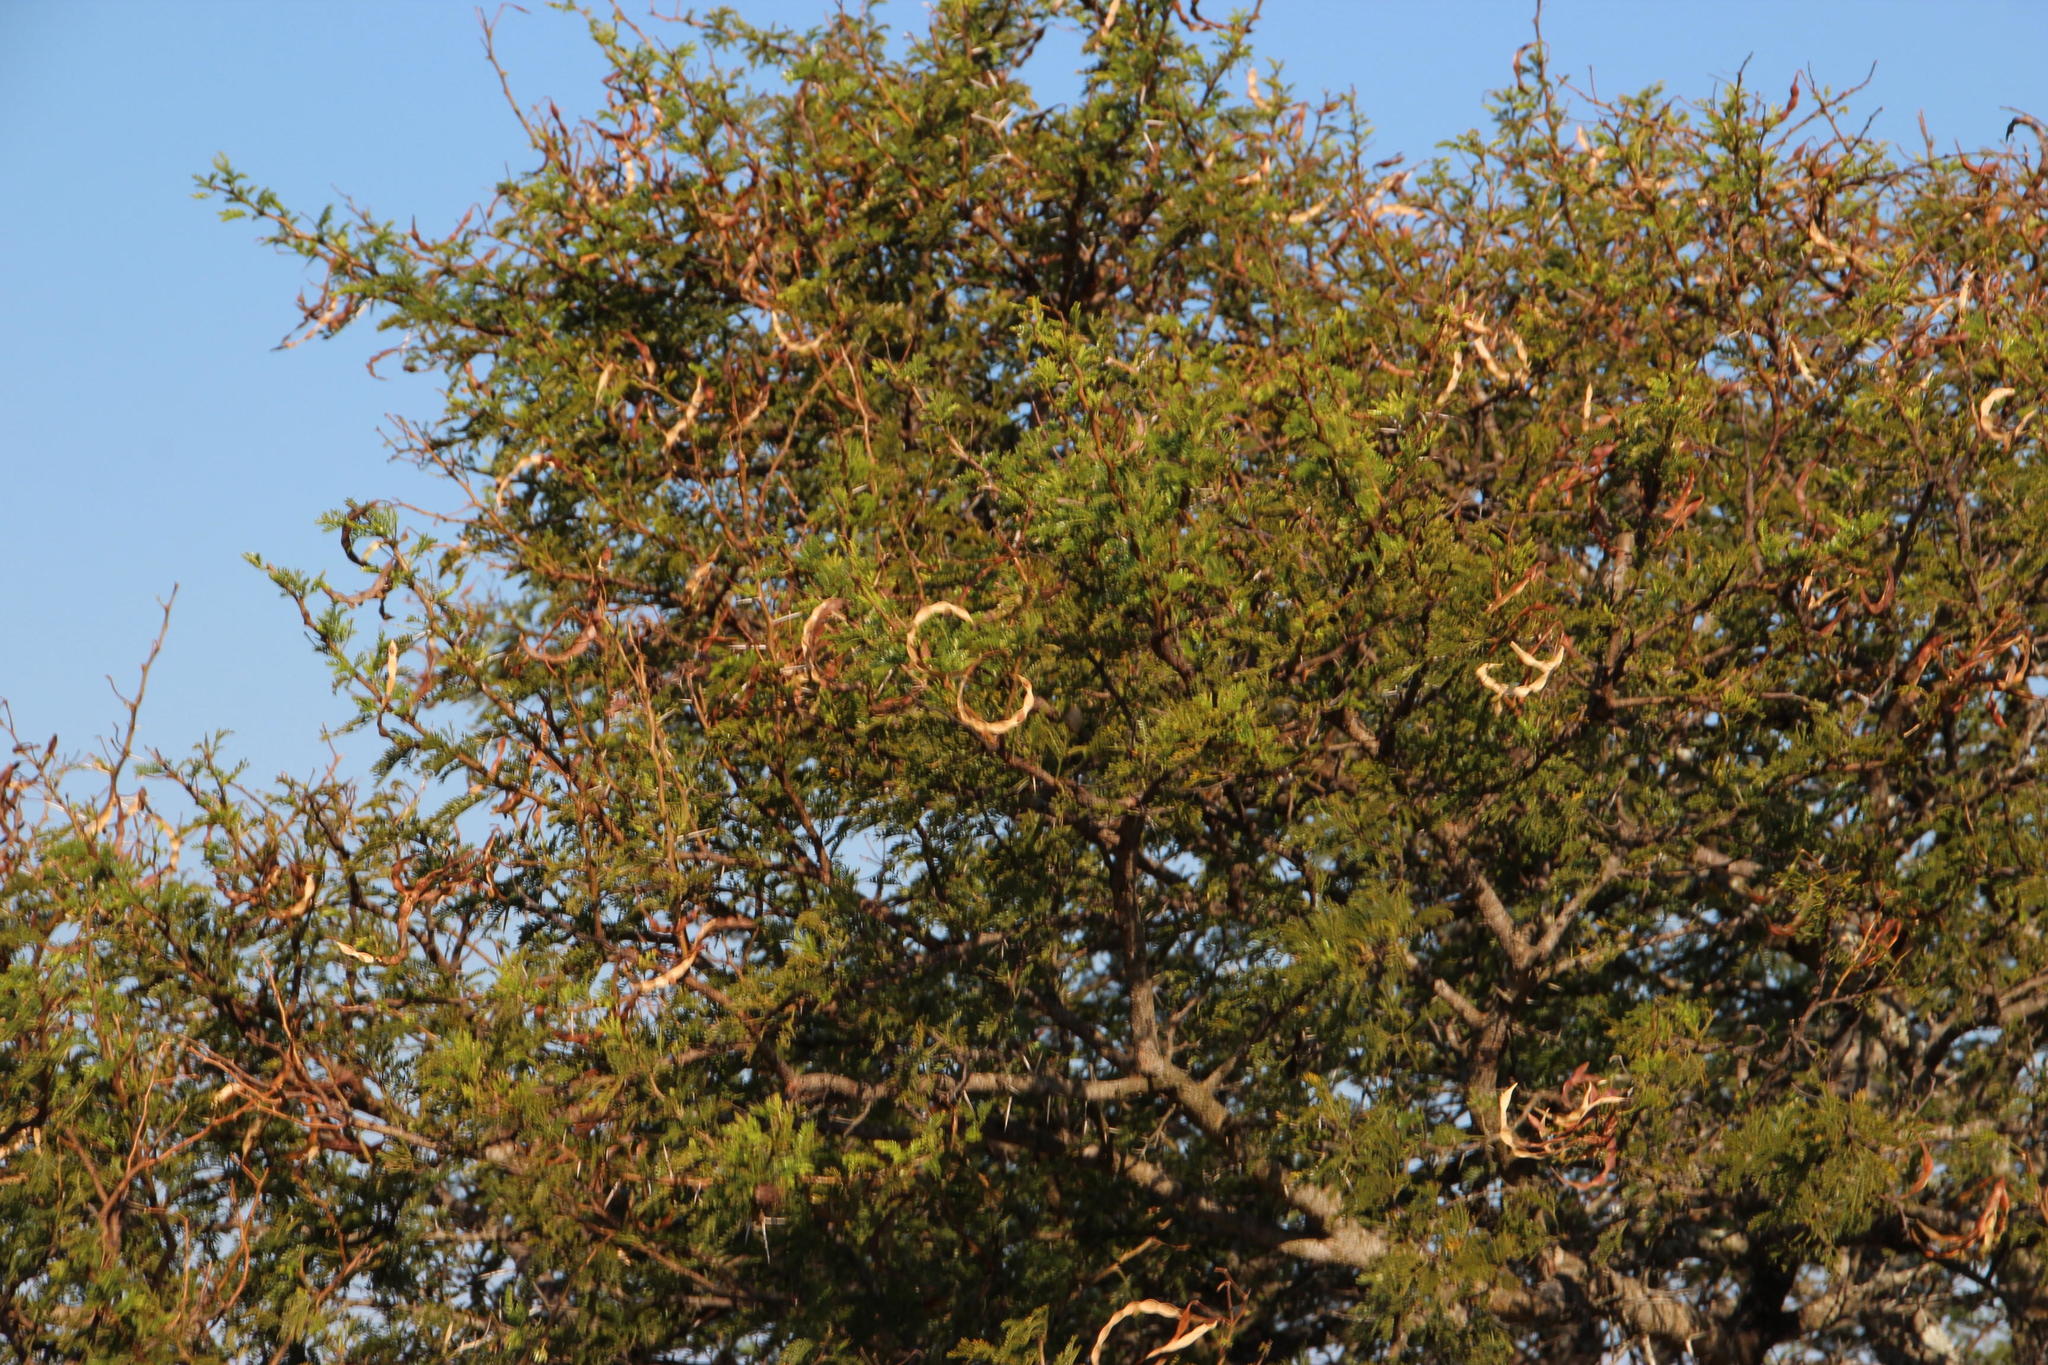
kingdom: Plantae
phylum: Tracheophyta
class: Magnoliopsida
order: Fabales
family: Fabaceae
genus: Vachellia
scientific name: Vachellia karroo
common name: Sweet thorn
